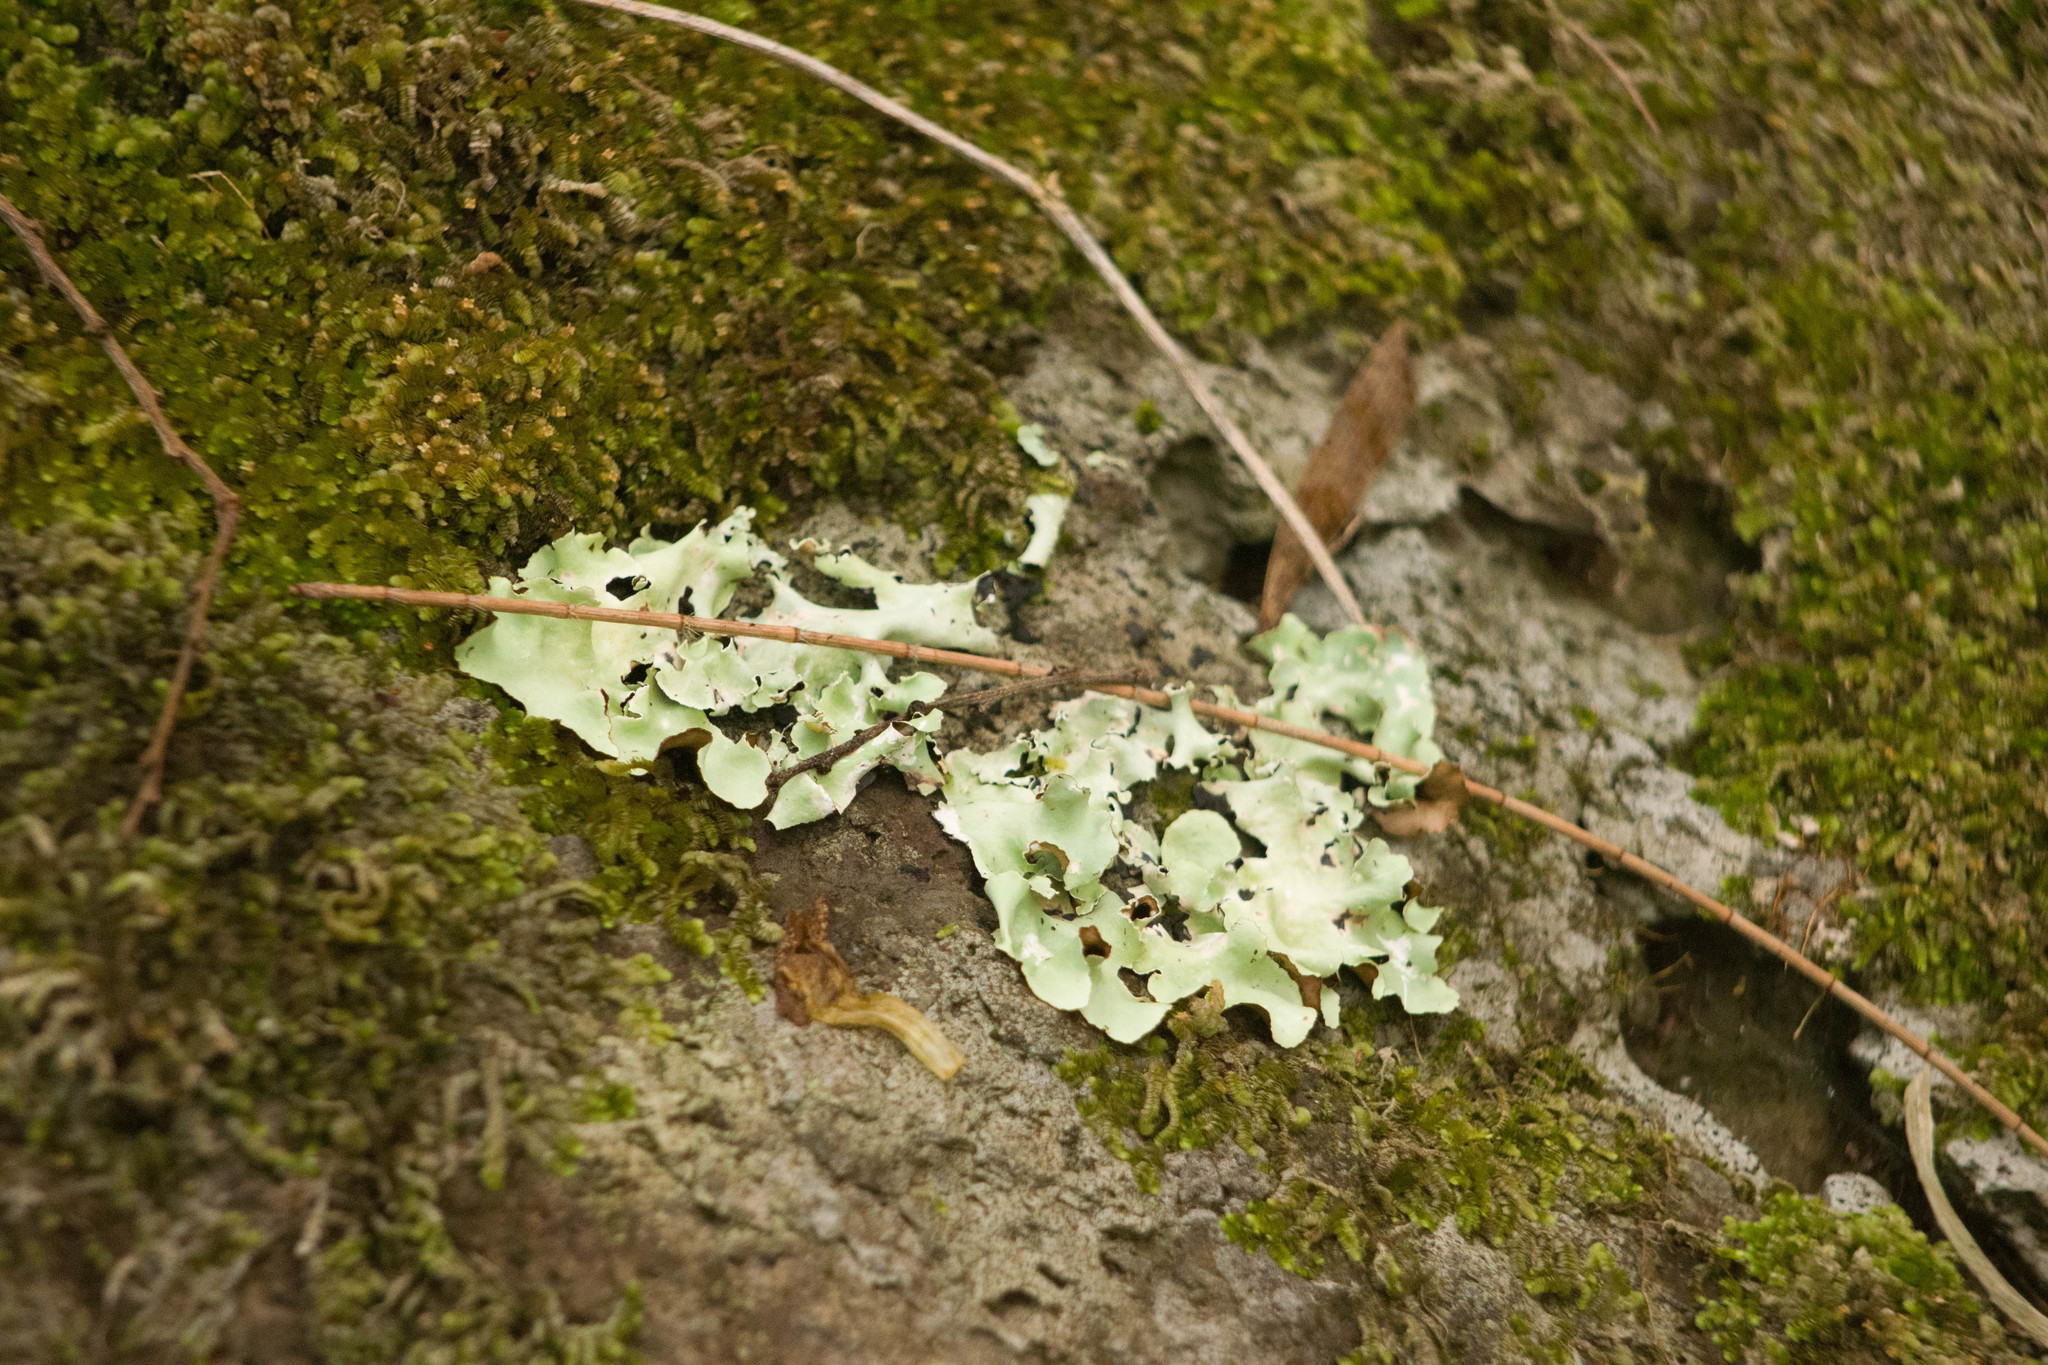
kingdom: Fungi
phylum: Ascomycota
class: Lecanoromycetes
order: Lecanorales
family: Parmeliaceae
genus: Parmotrema
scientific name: Parmotrema praesorediosum
